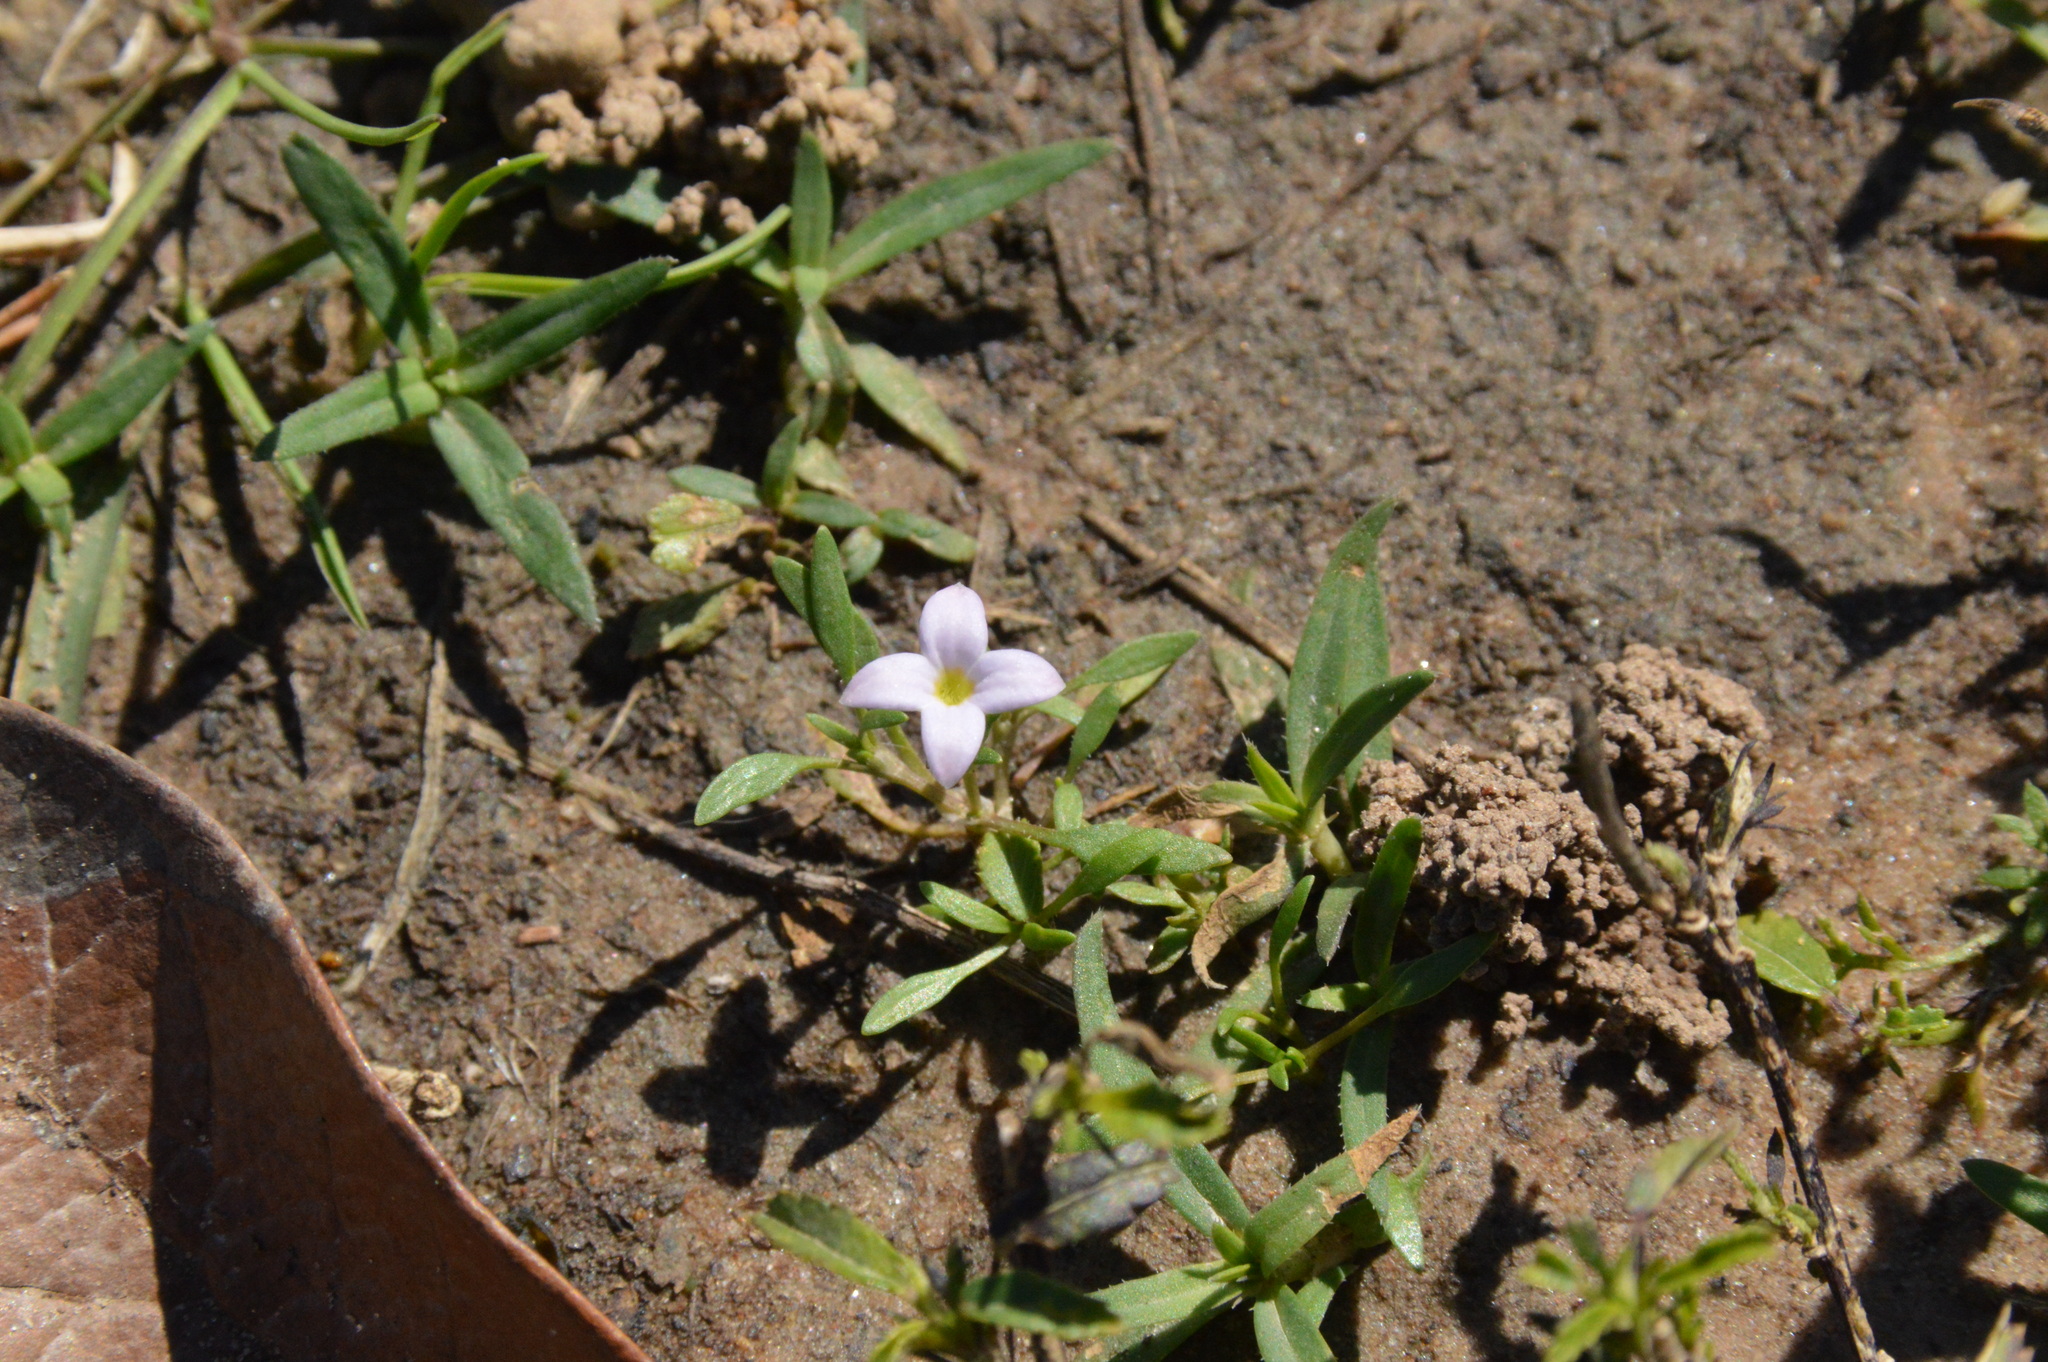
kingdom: Plantae
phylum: Tracheophyta
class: Magnoliopsida
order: Gentianales
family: Rubiaceae
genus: Houstonia
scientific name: Houstonia rosea
